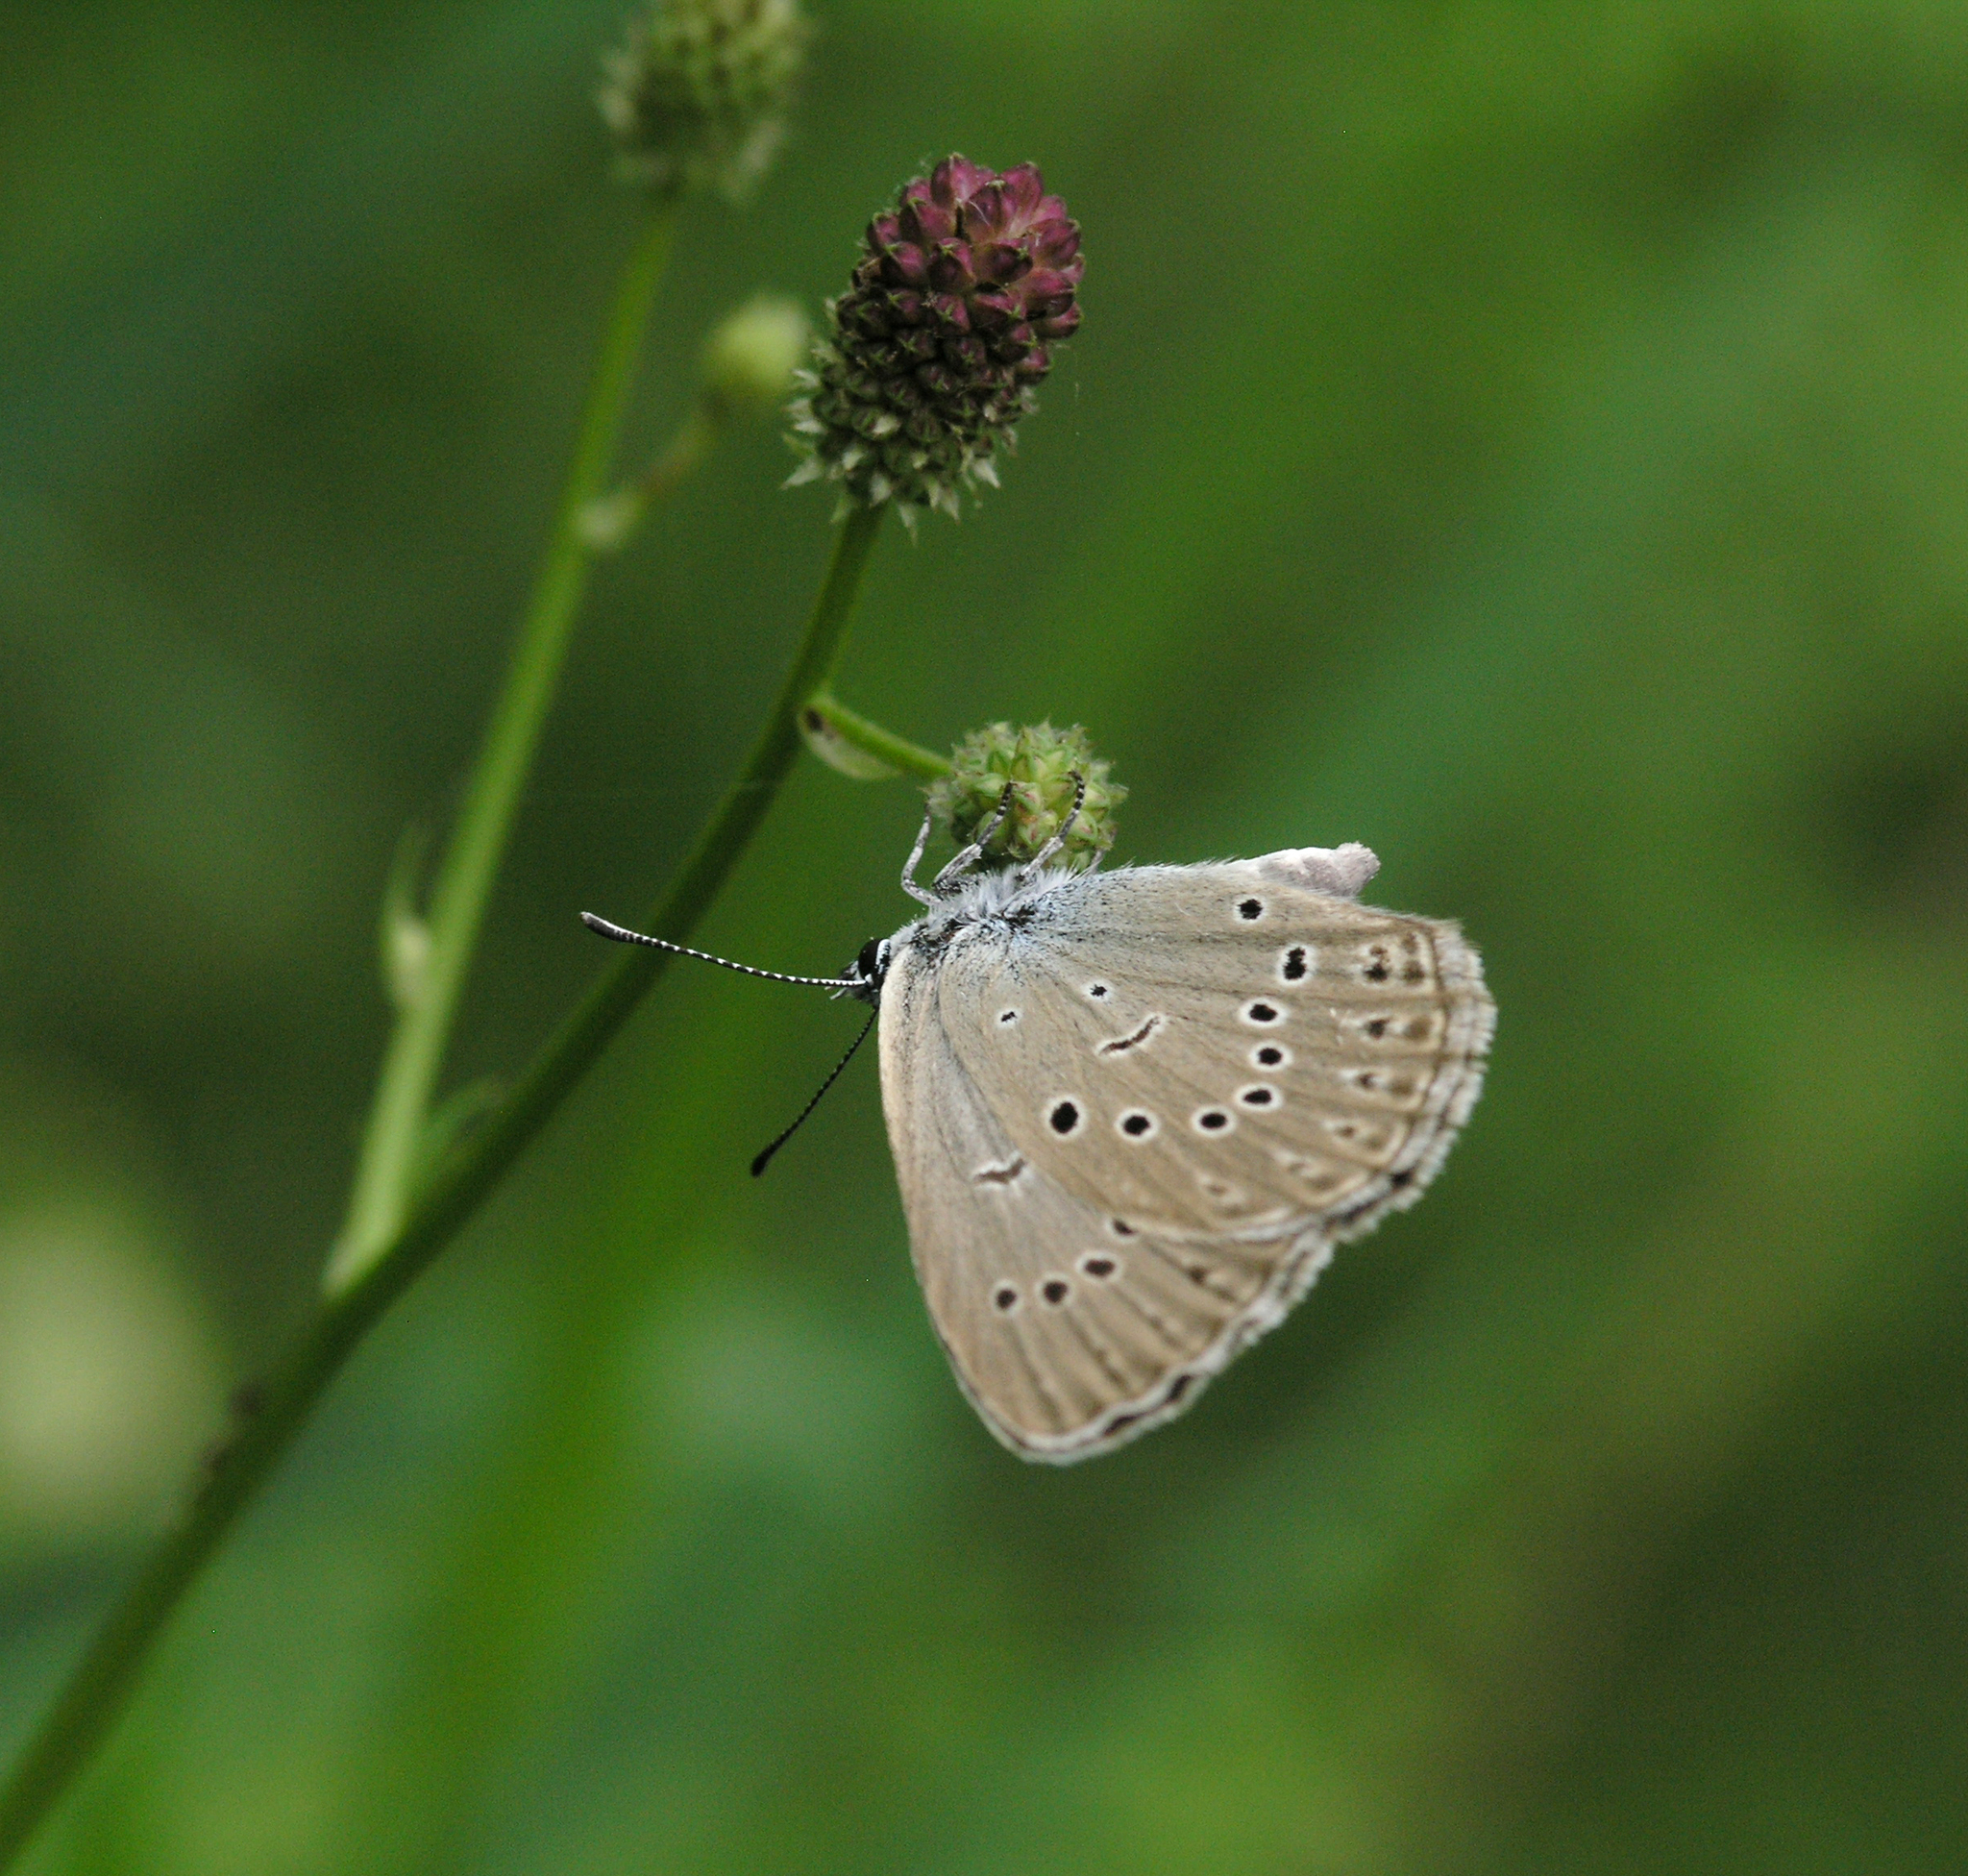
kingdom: Plantae
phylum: Tracheophyta
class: Magnoliopsida
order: Rosales
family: Rosaceae
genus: Sanguisorba
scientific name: Sanguisorba officinalis
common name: Great burnet
